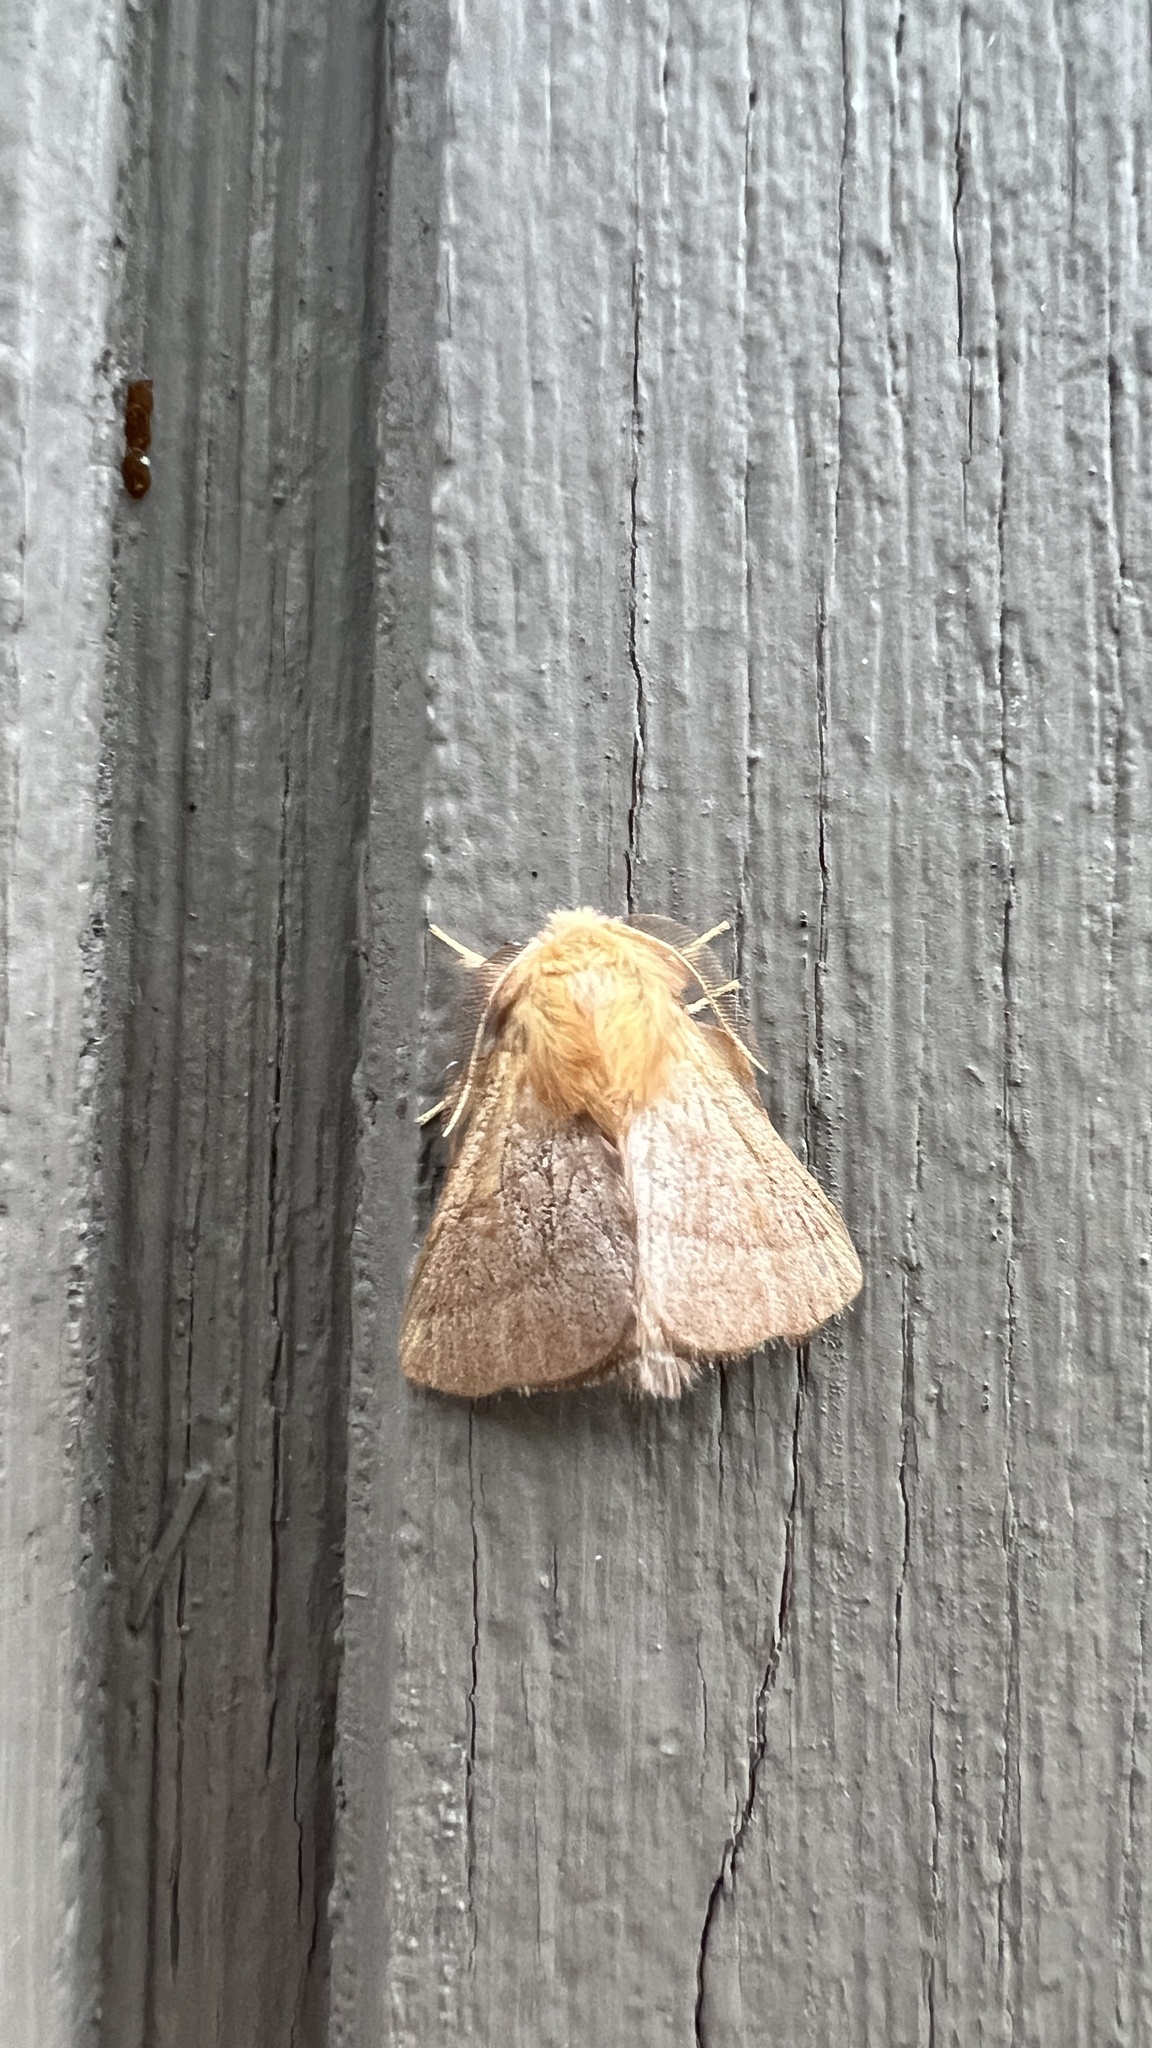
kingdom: Animalia
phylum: Arthropoda
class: Insecta
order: Lepidoptera
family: Lasiocampidae
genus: Malacosoma
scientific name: Malacosoma disstria
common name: Forest tent caterpillar
